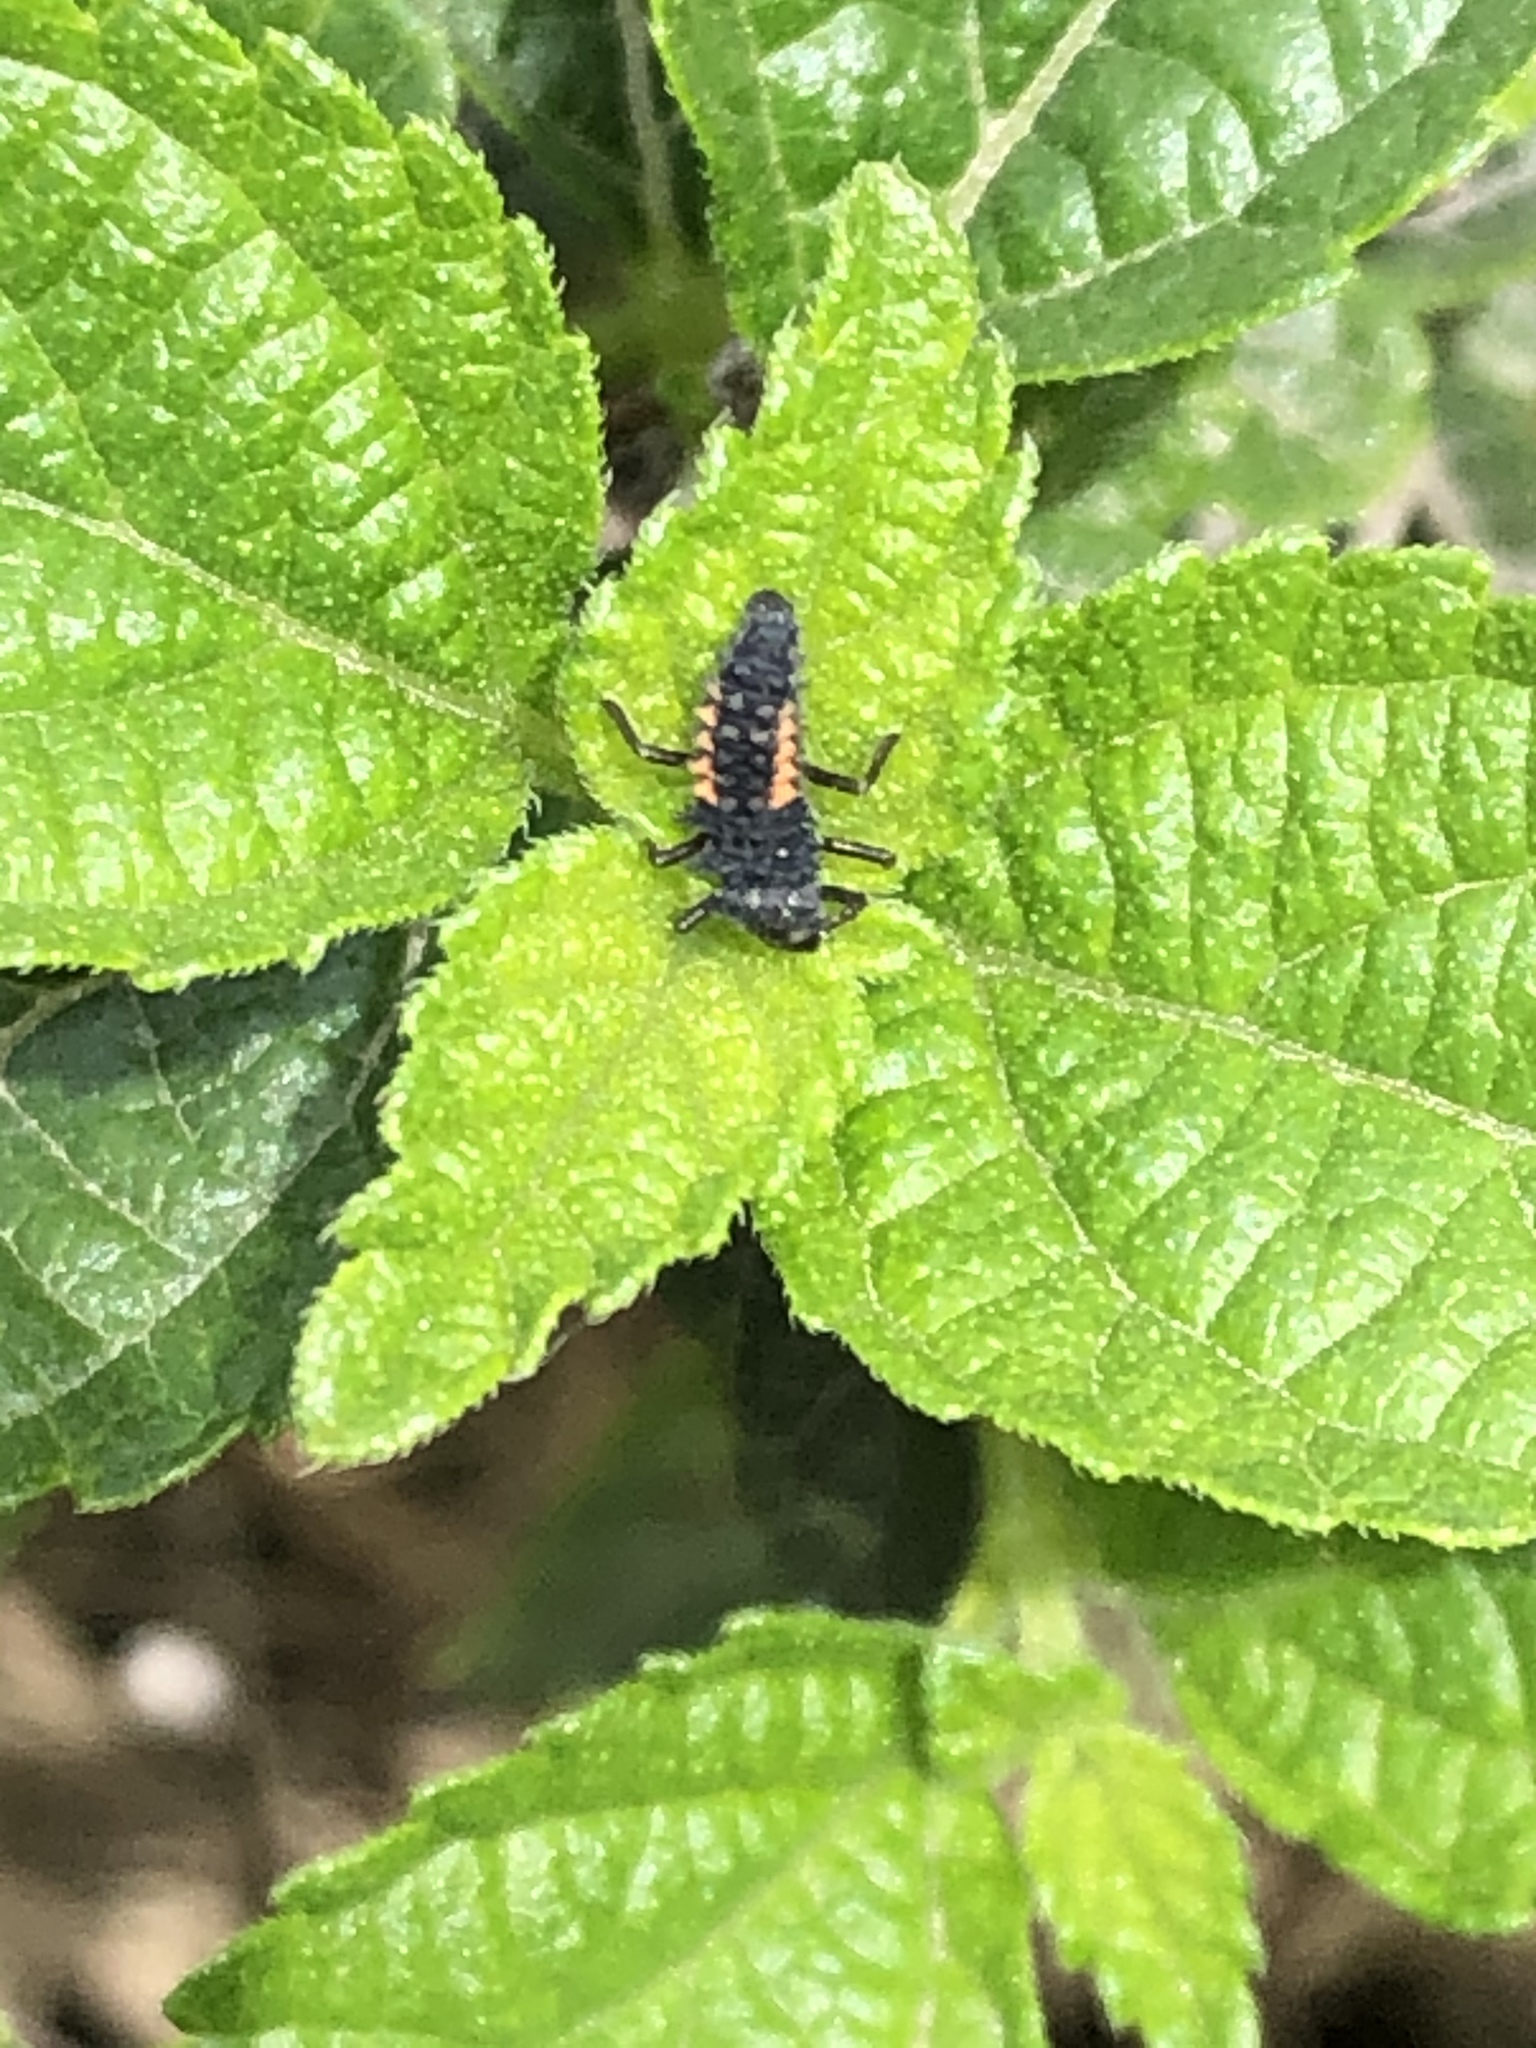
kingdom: Animalia
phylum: Arthropoda
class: Insecta
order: Coleoptera
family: Coccinellidae
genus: Harmonia
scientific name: Harmonia axyridis
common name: Harlequin ladybird
